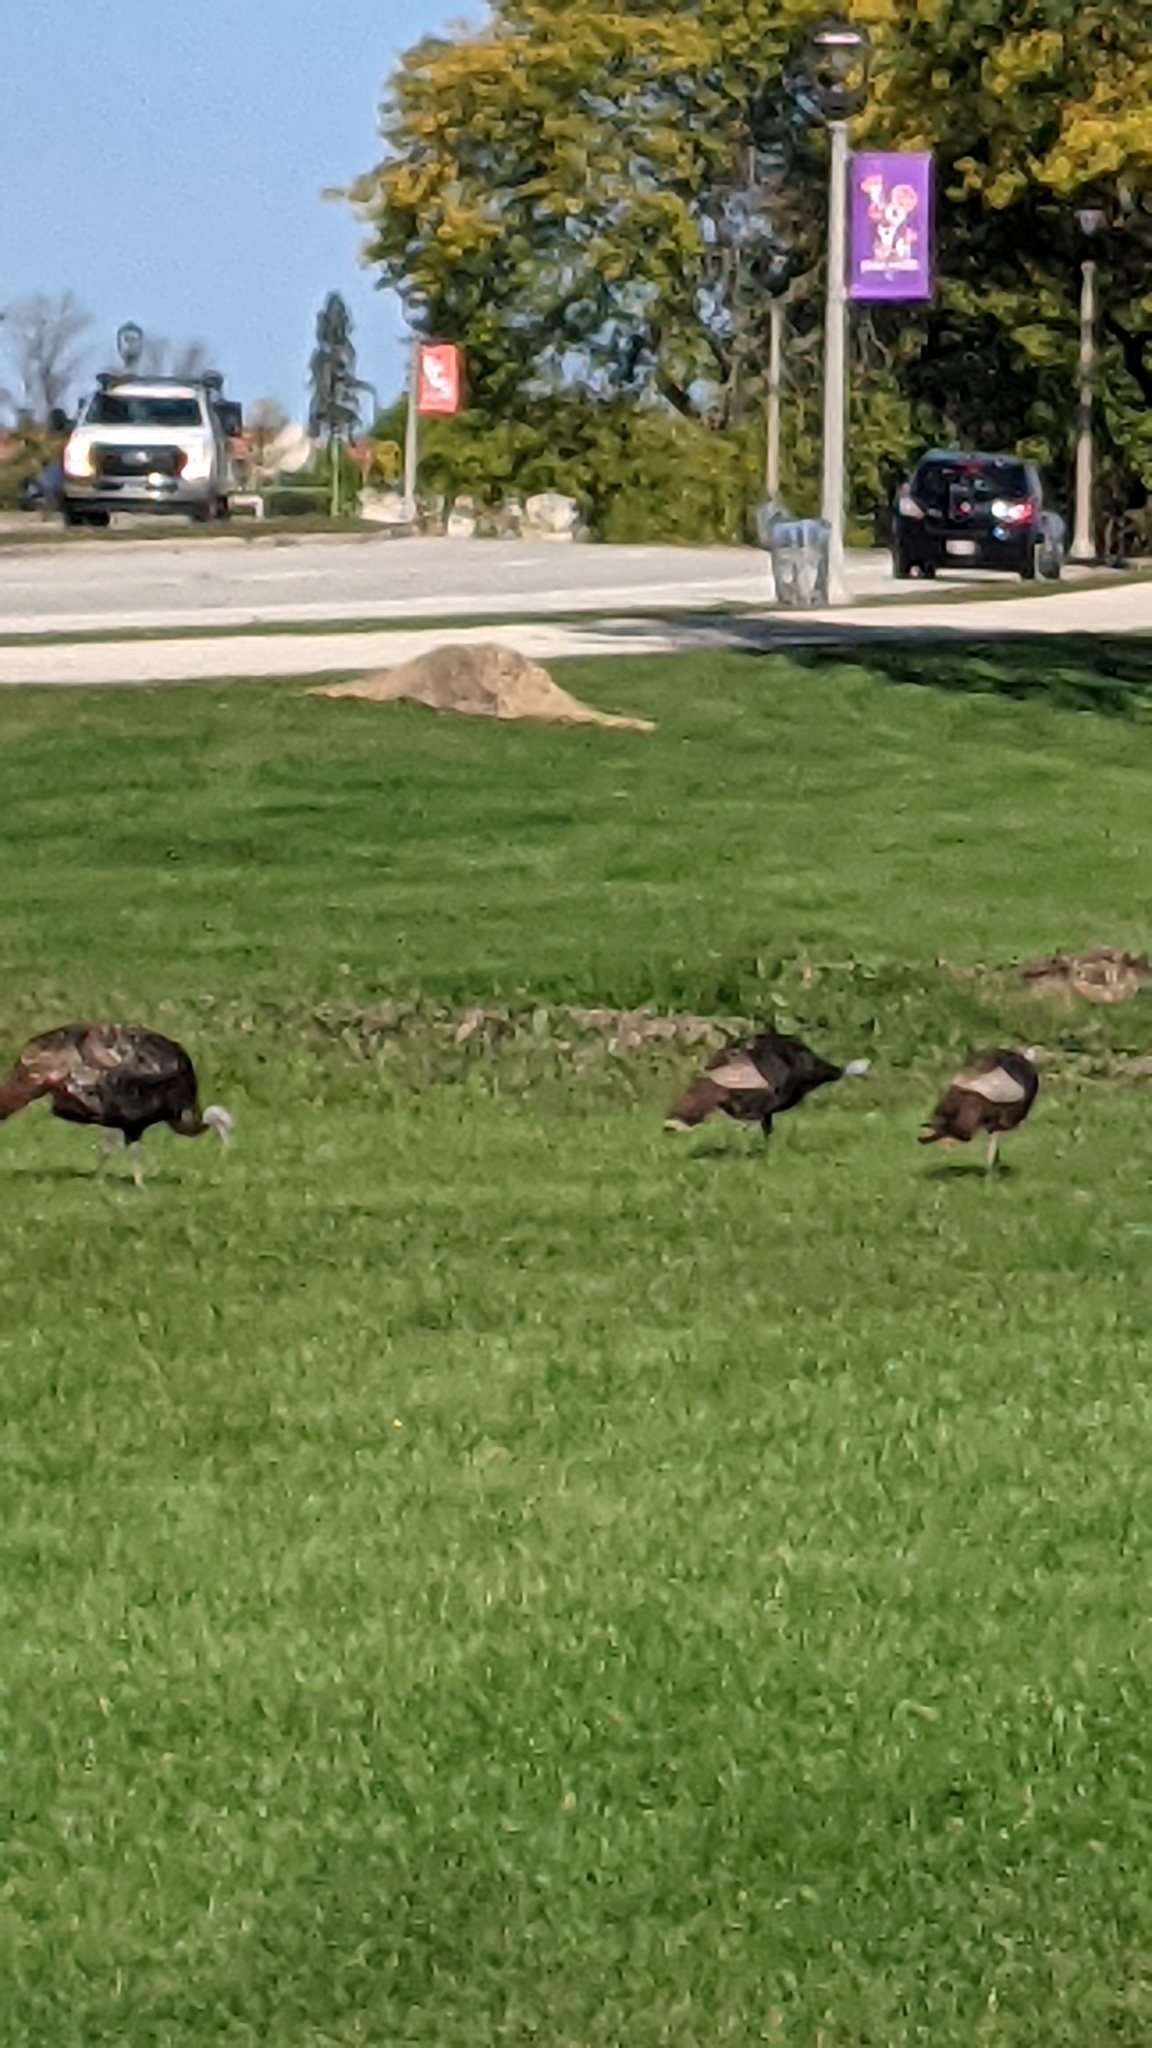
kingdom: Animalia
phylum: Chordata
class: Aves
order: Galliformes
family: Phasianidae
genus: Meleagris
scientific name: Meleagris gallopavo
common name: Wild turkey
